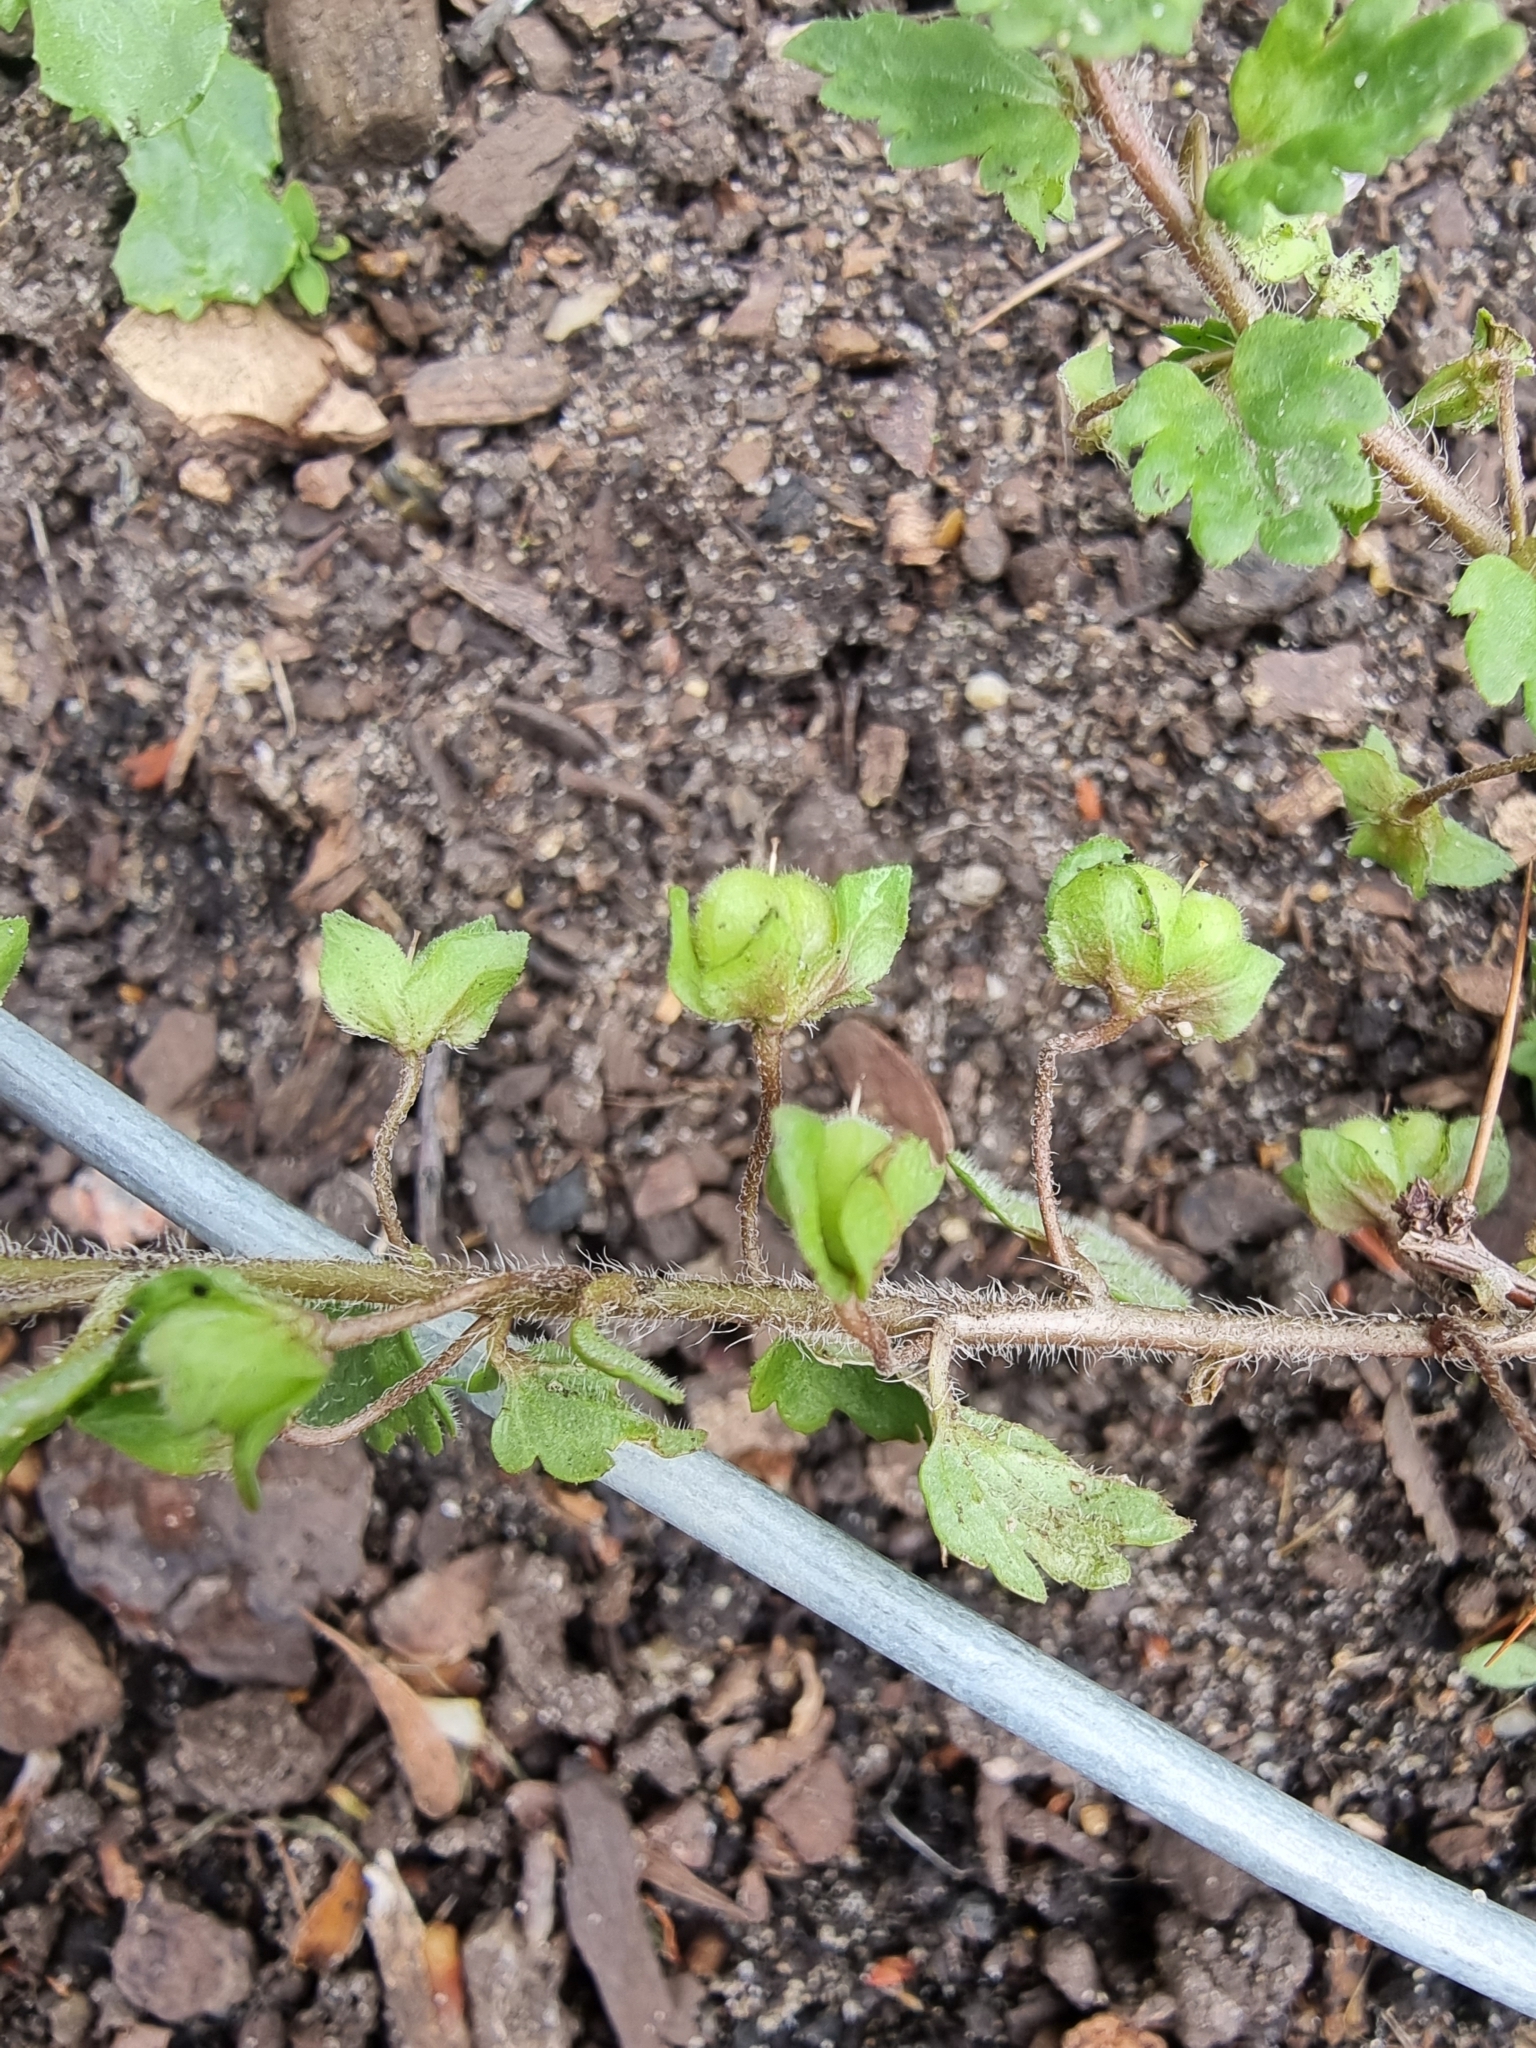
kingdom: Plantae
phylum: Tracheophyta
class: Magnoliopsida
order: Lamiales
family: Plantaginaceae
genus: Veronica
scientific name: Veronica polita
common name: Grey field-speedwell
